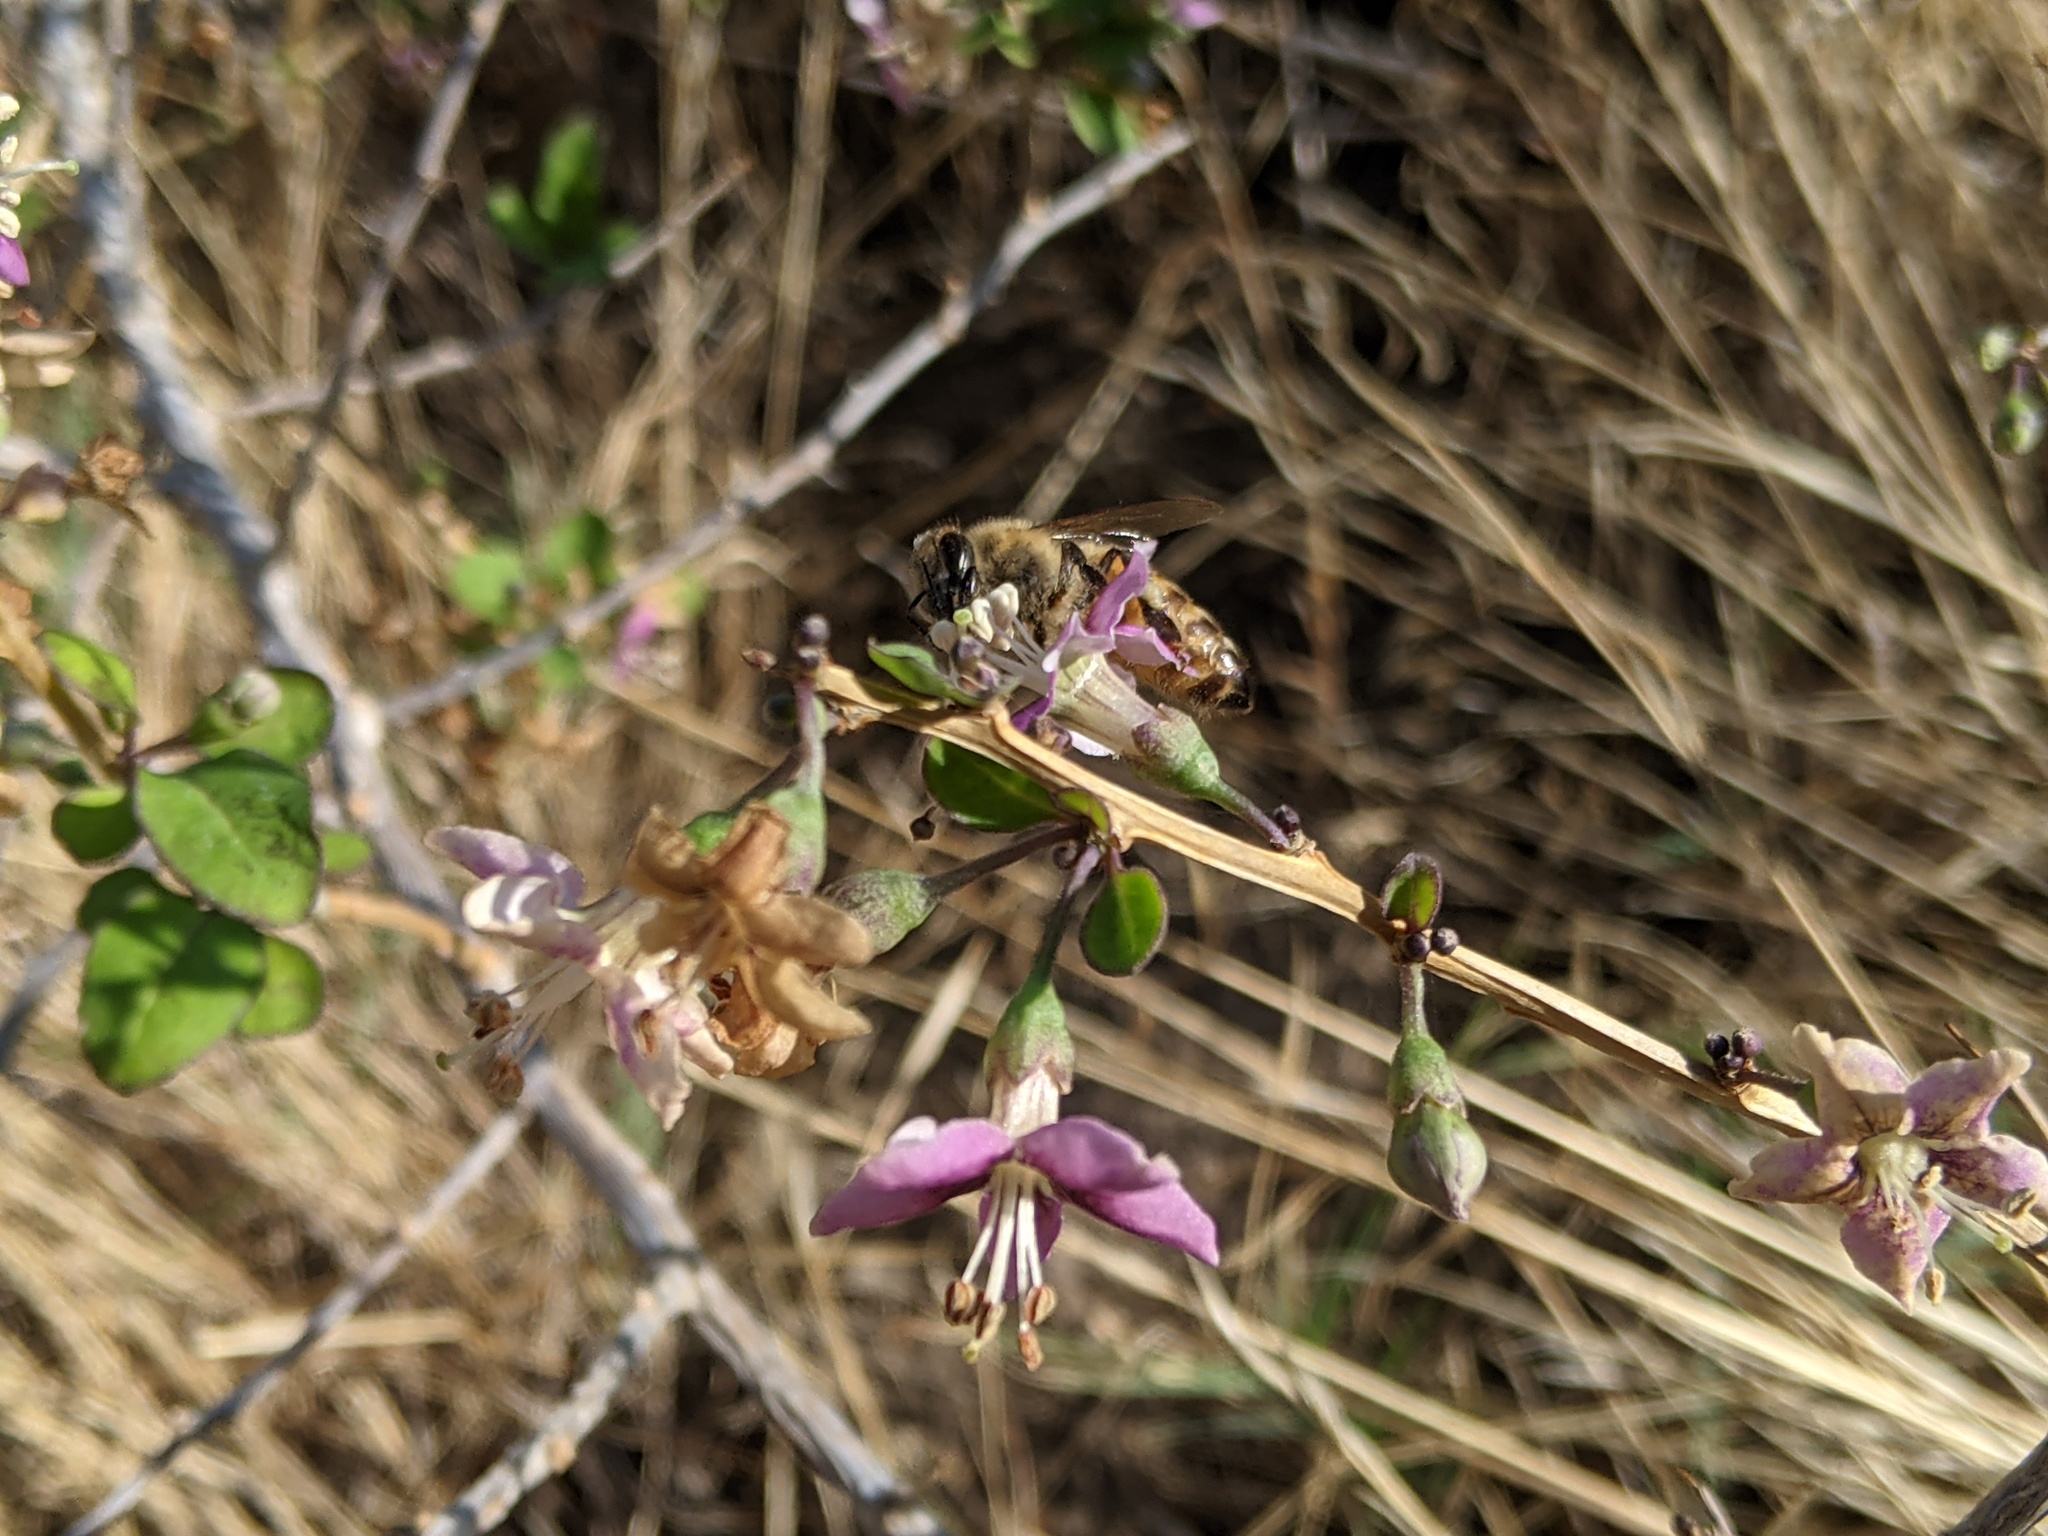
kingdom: Animalia
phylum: Arthropoda
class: Insecta
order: Hymenoptera
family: Apidae
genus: Apis
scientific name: Apis mellifera
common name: Honey bee
